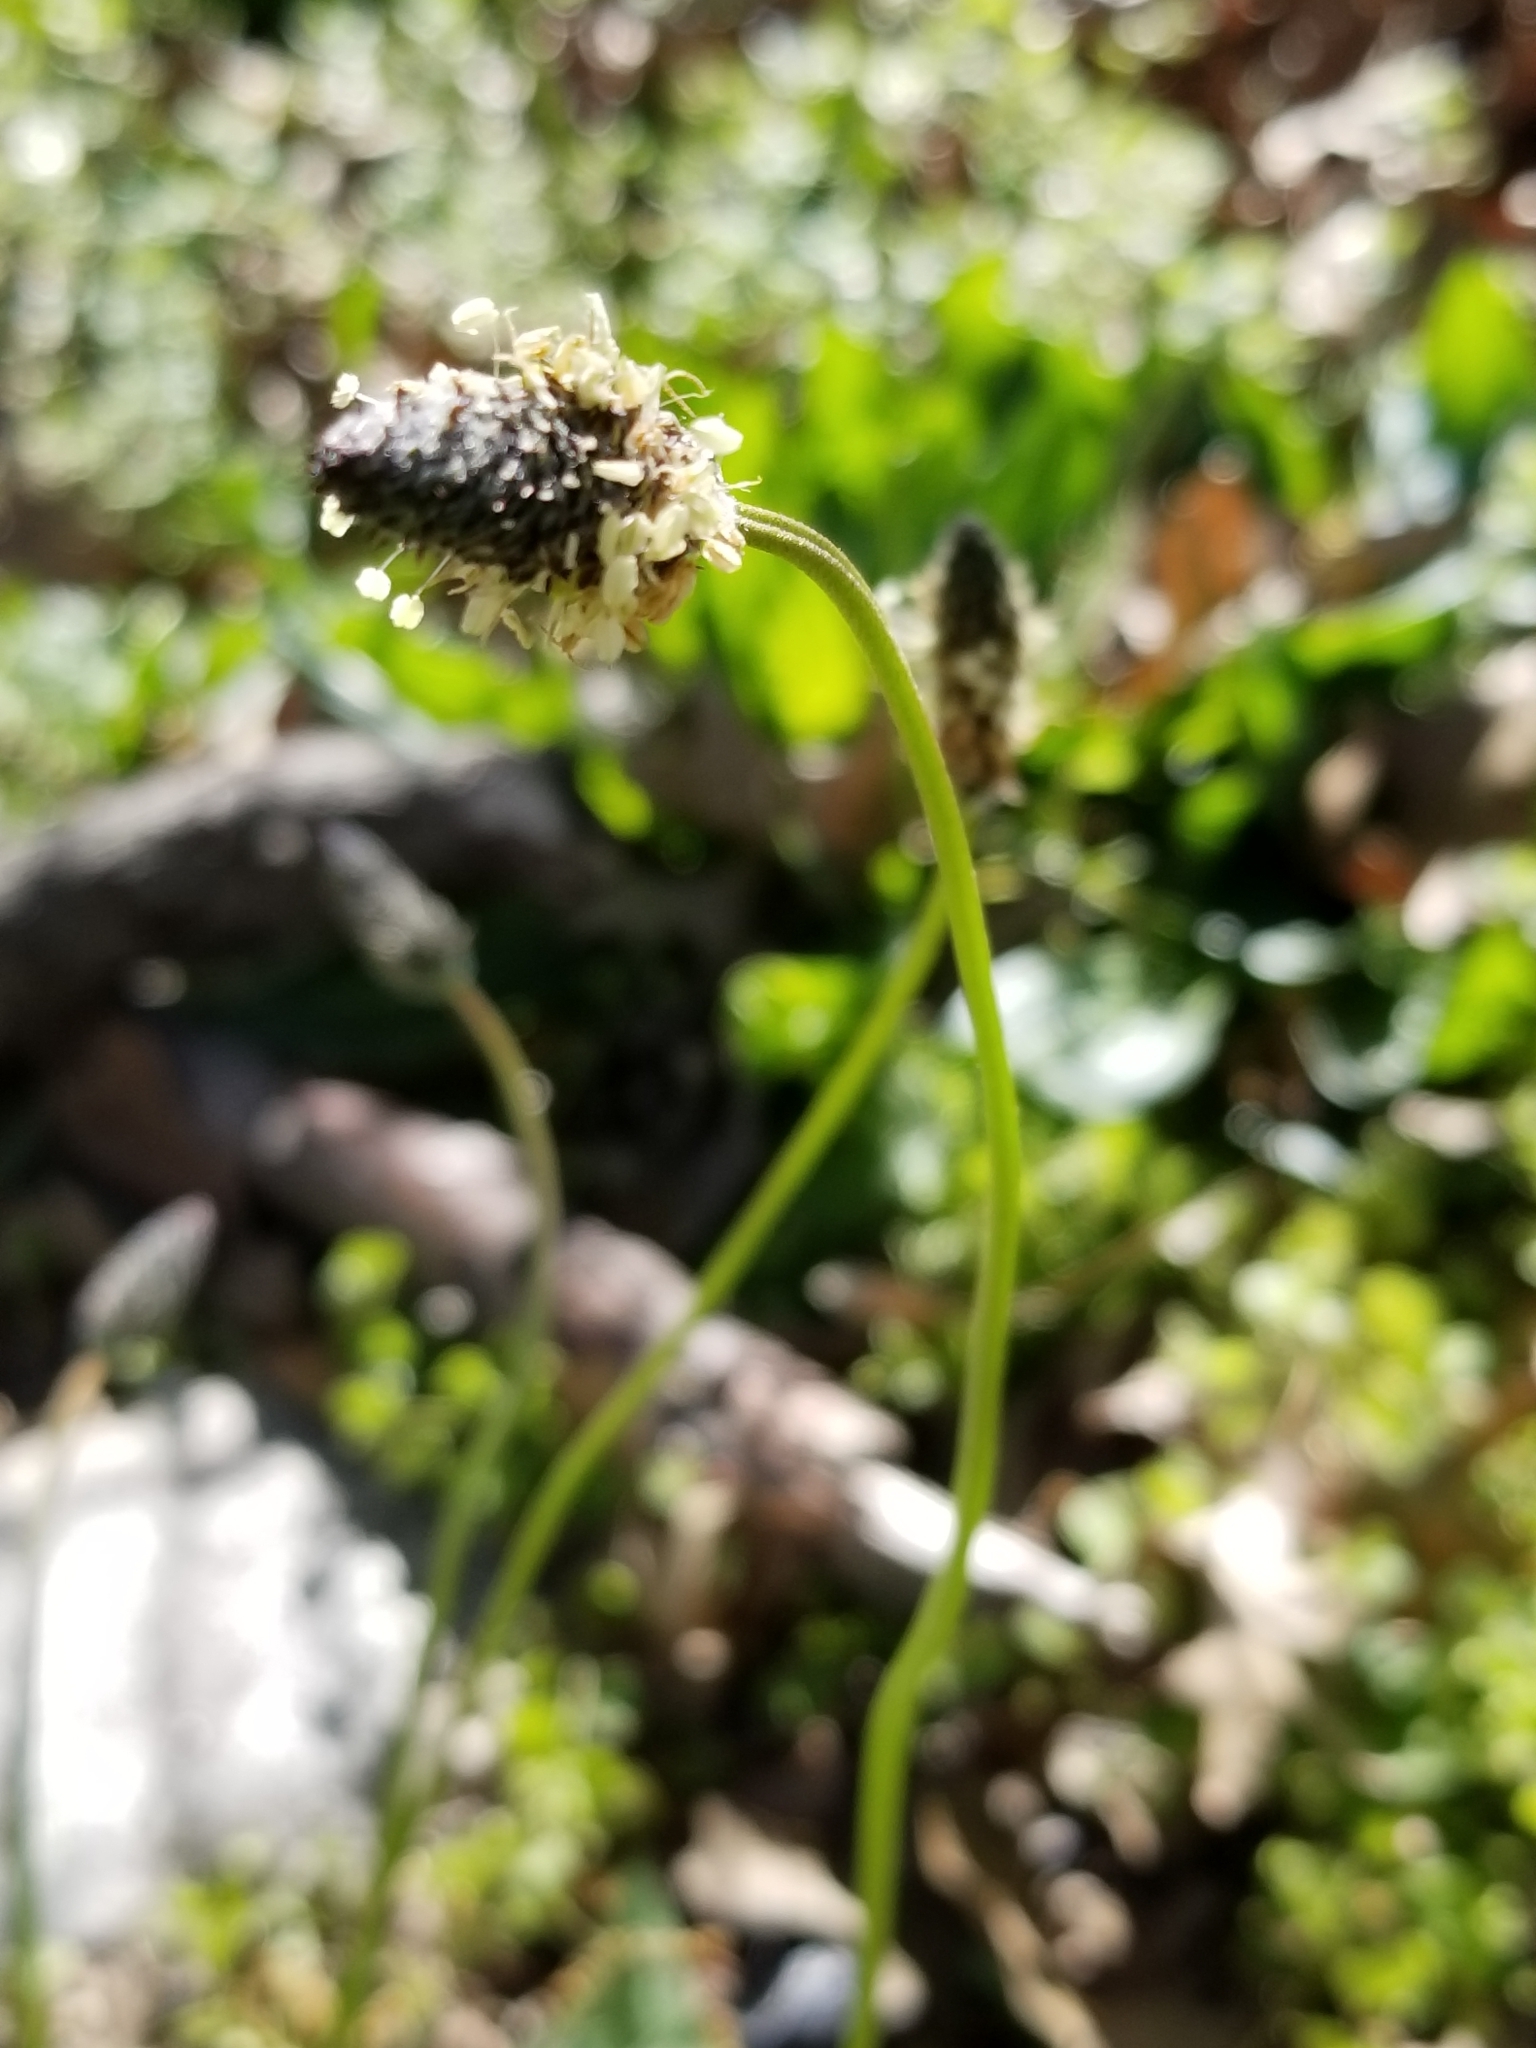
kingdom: Plantae
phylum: Tracheophyta
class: Magnoliopsida
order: Lamiales
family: Plantaginaceae
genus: Plantago
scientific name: Plantago lanceolata
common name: Ribwort plantain
